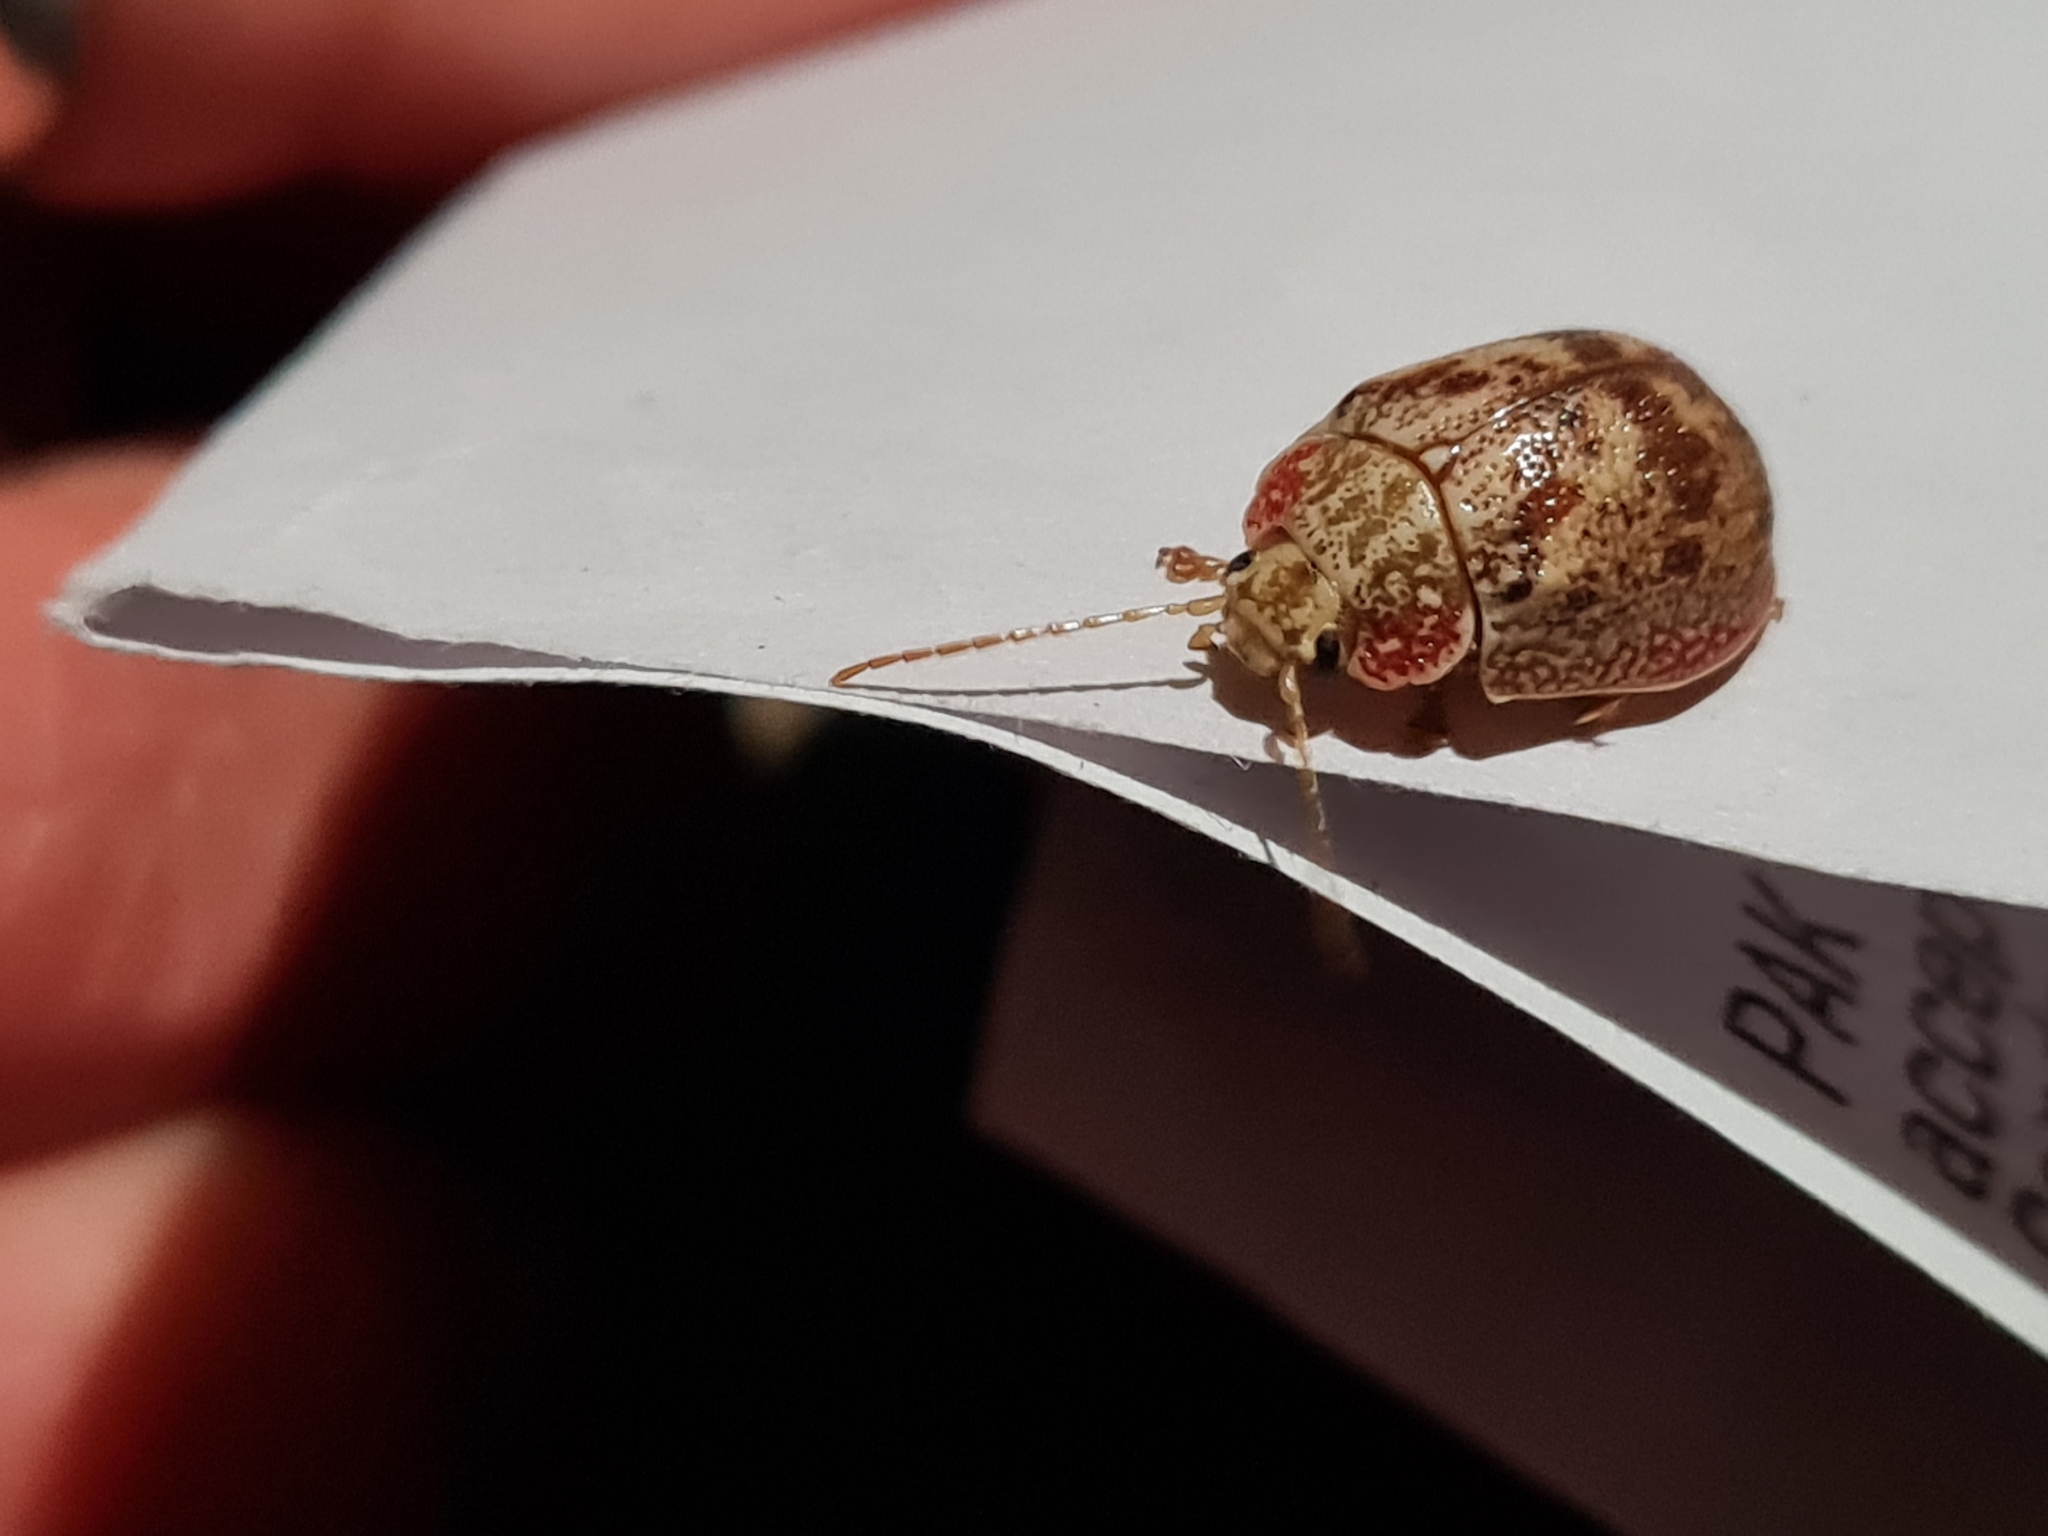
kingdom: Animalia
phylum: Arthropoda
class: Insecta
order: Coleoptera
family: Chrysomelidae
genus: Paropsis
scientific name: Paropsis charybdis
